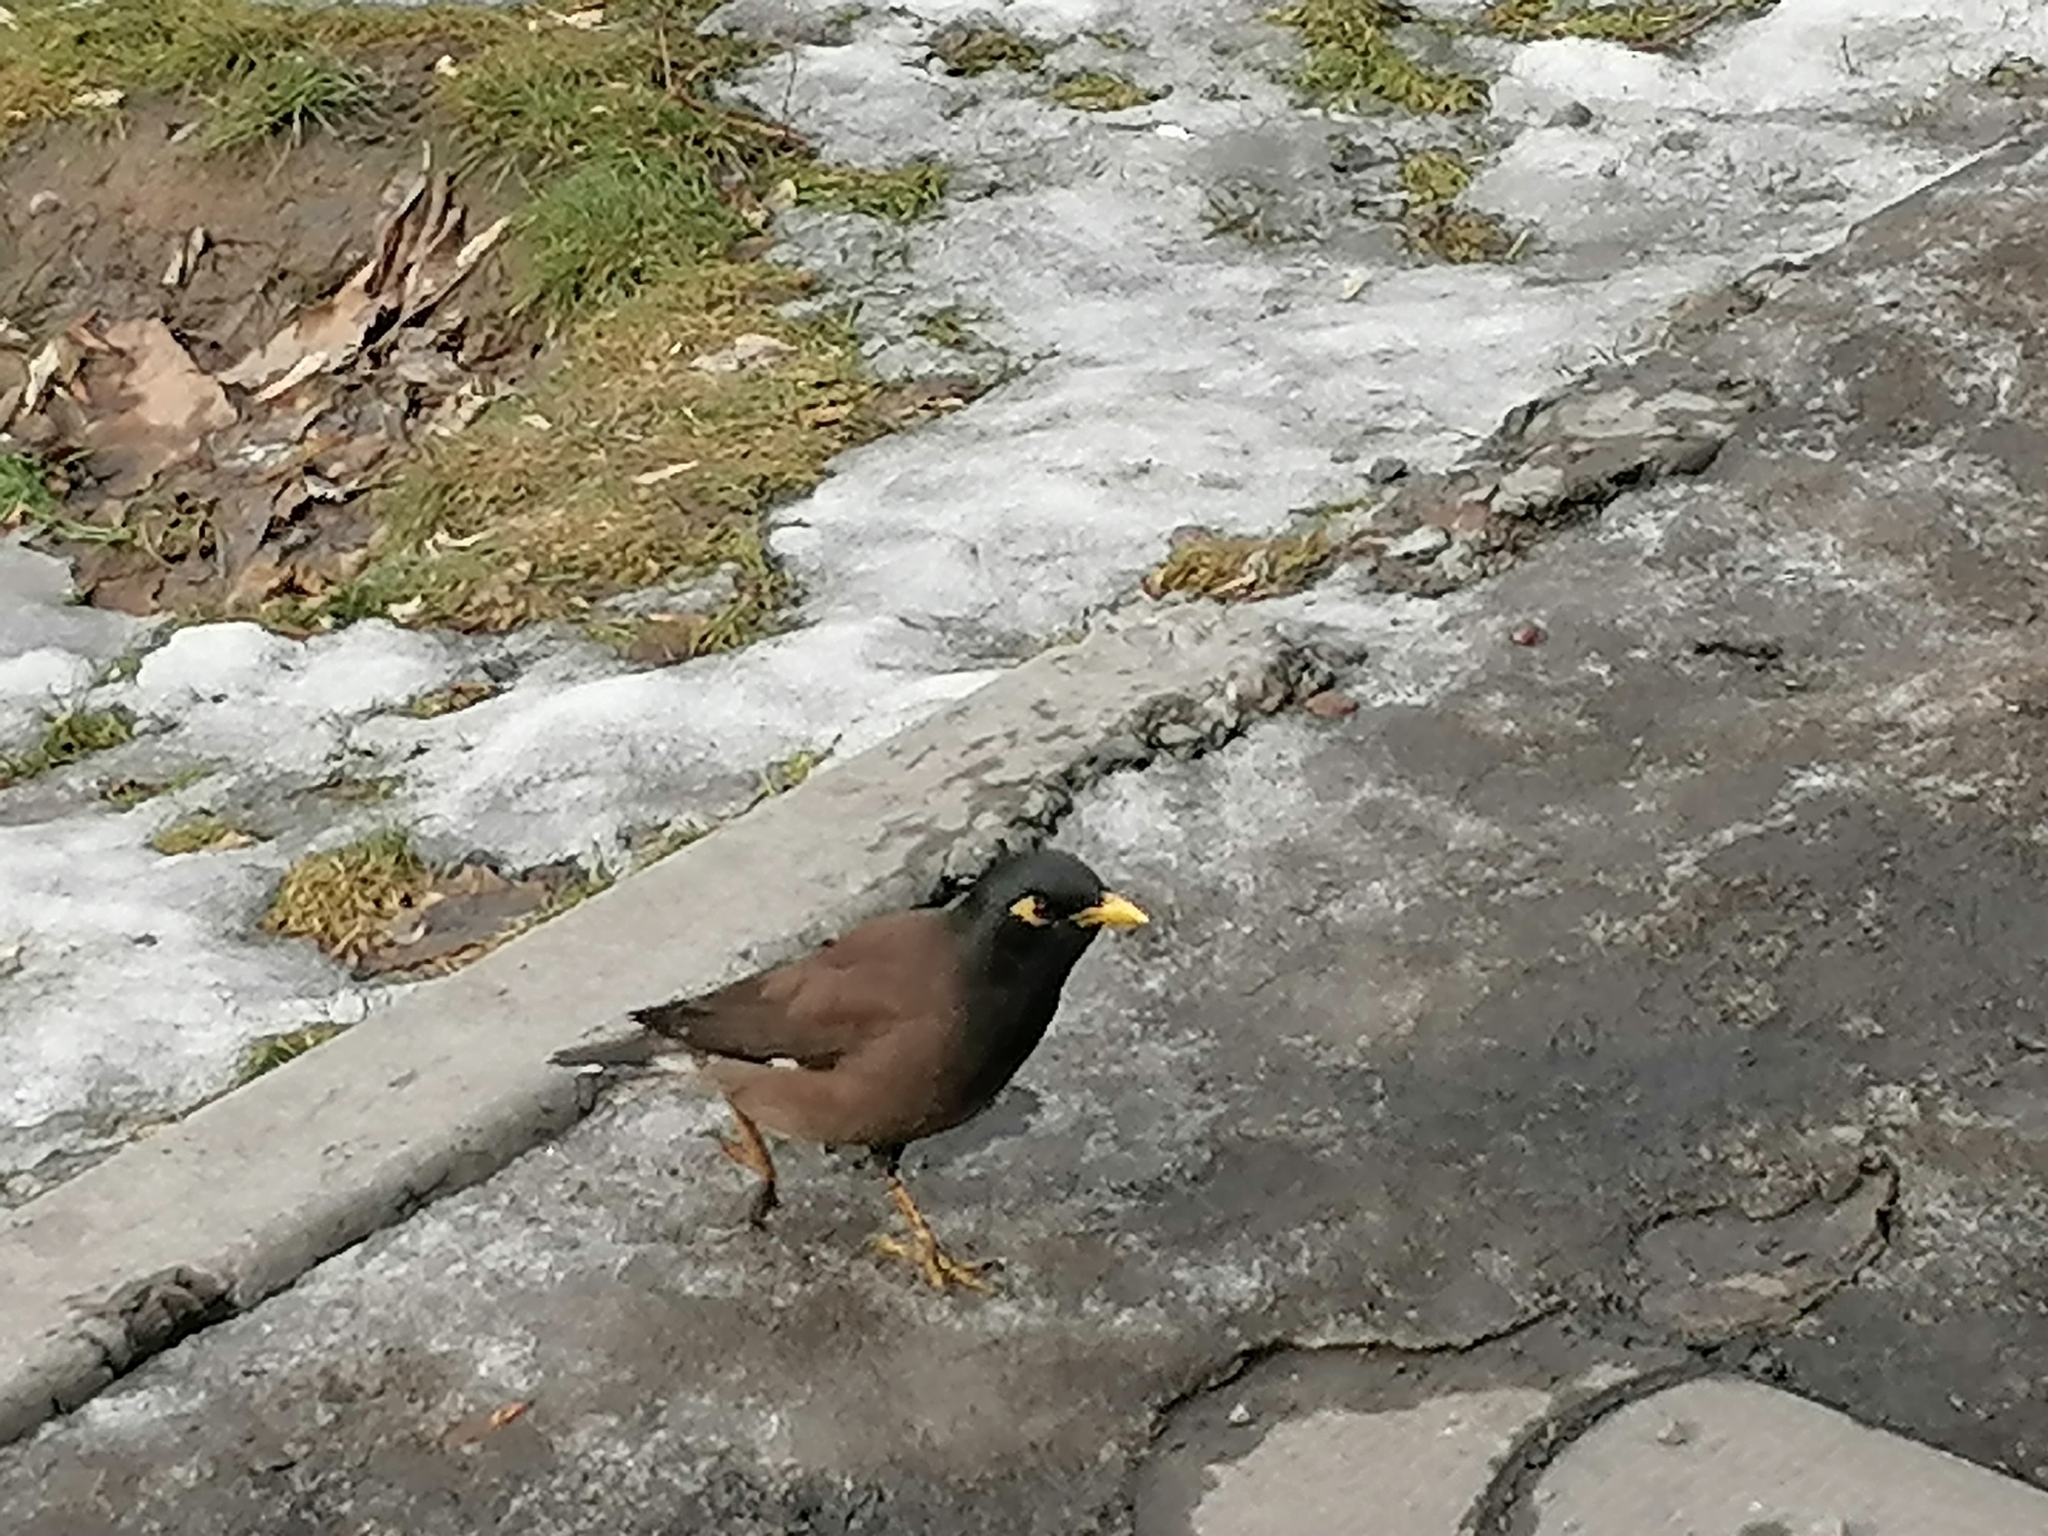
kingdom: Animalia
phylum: Chordata
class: Aves
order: Passeriformes
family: Sturnidae
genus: Acridotheres
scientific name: Acridotheres tristis
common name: Common myna
